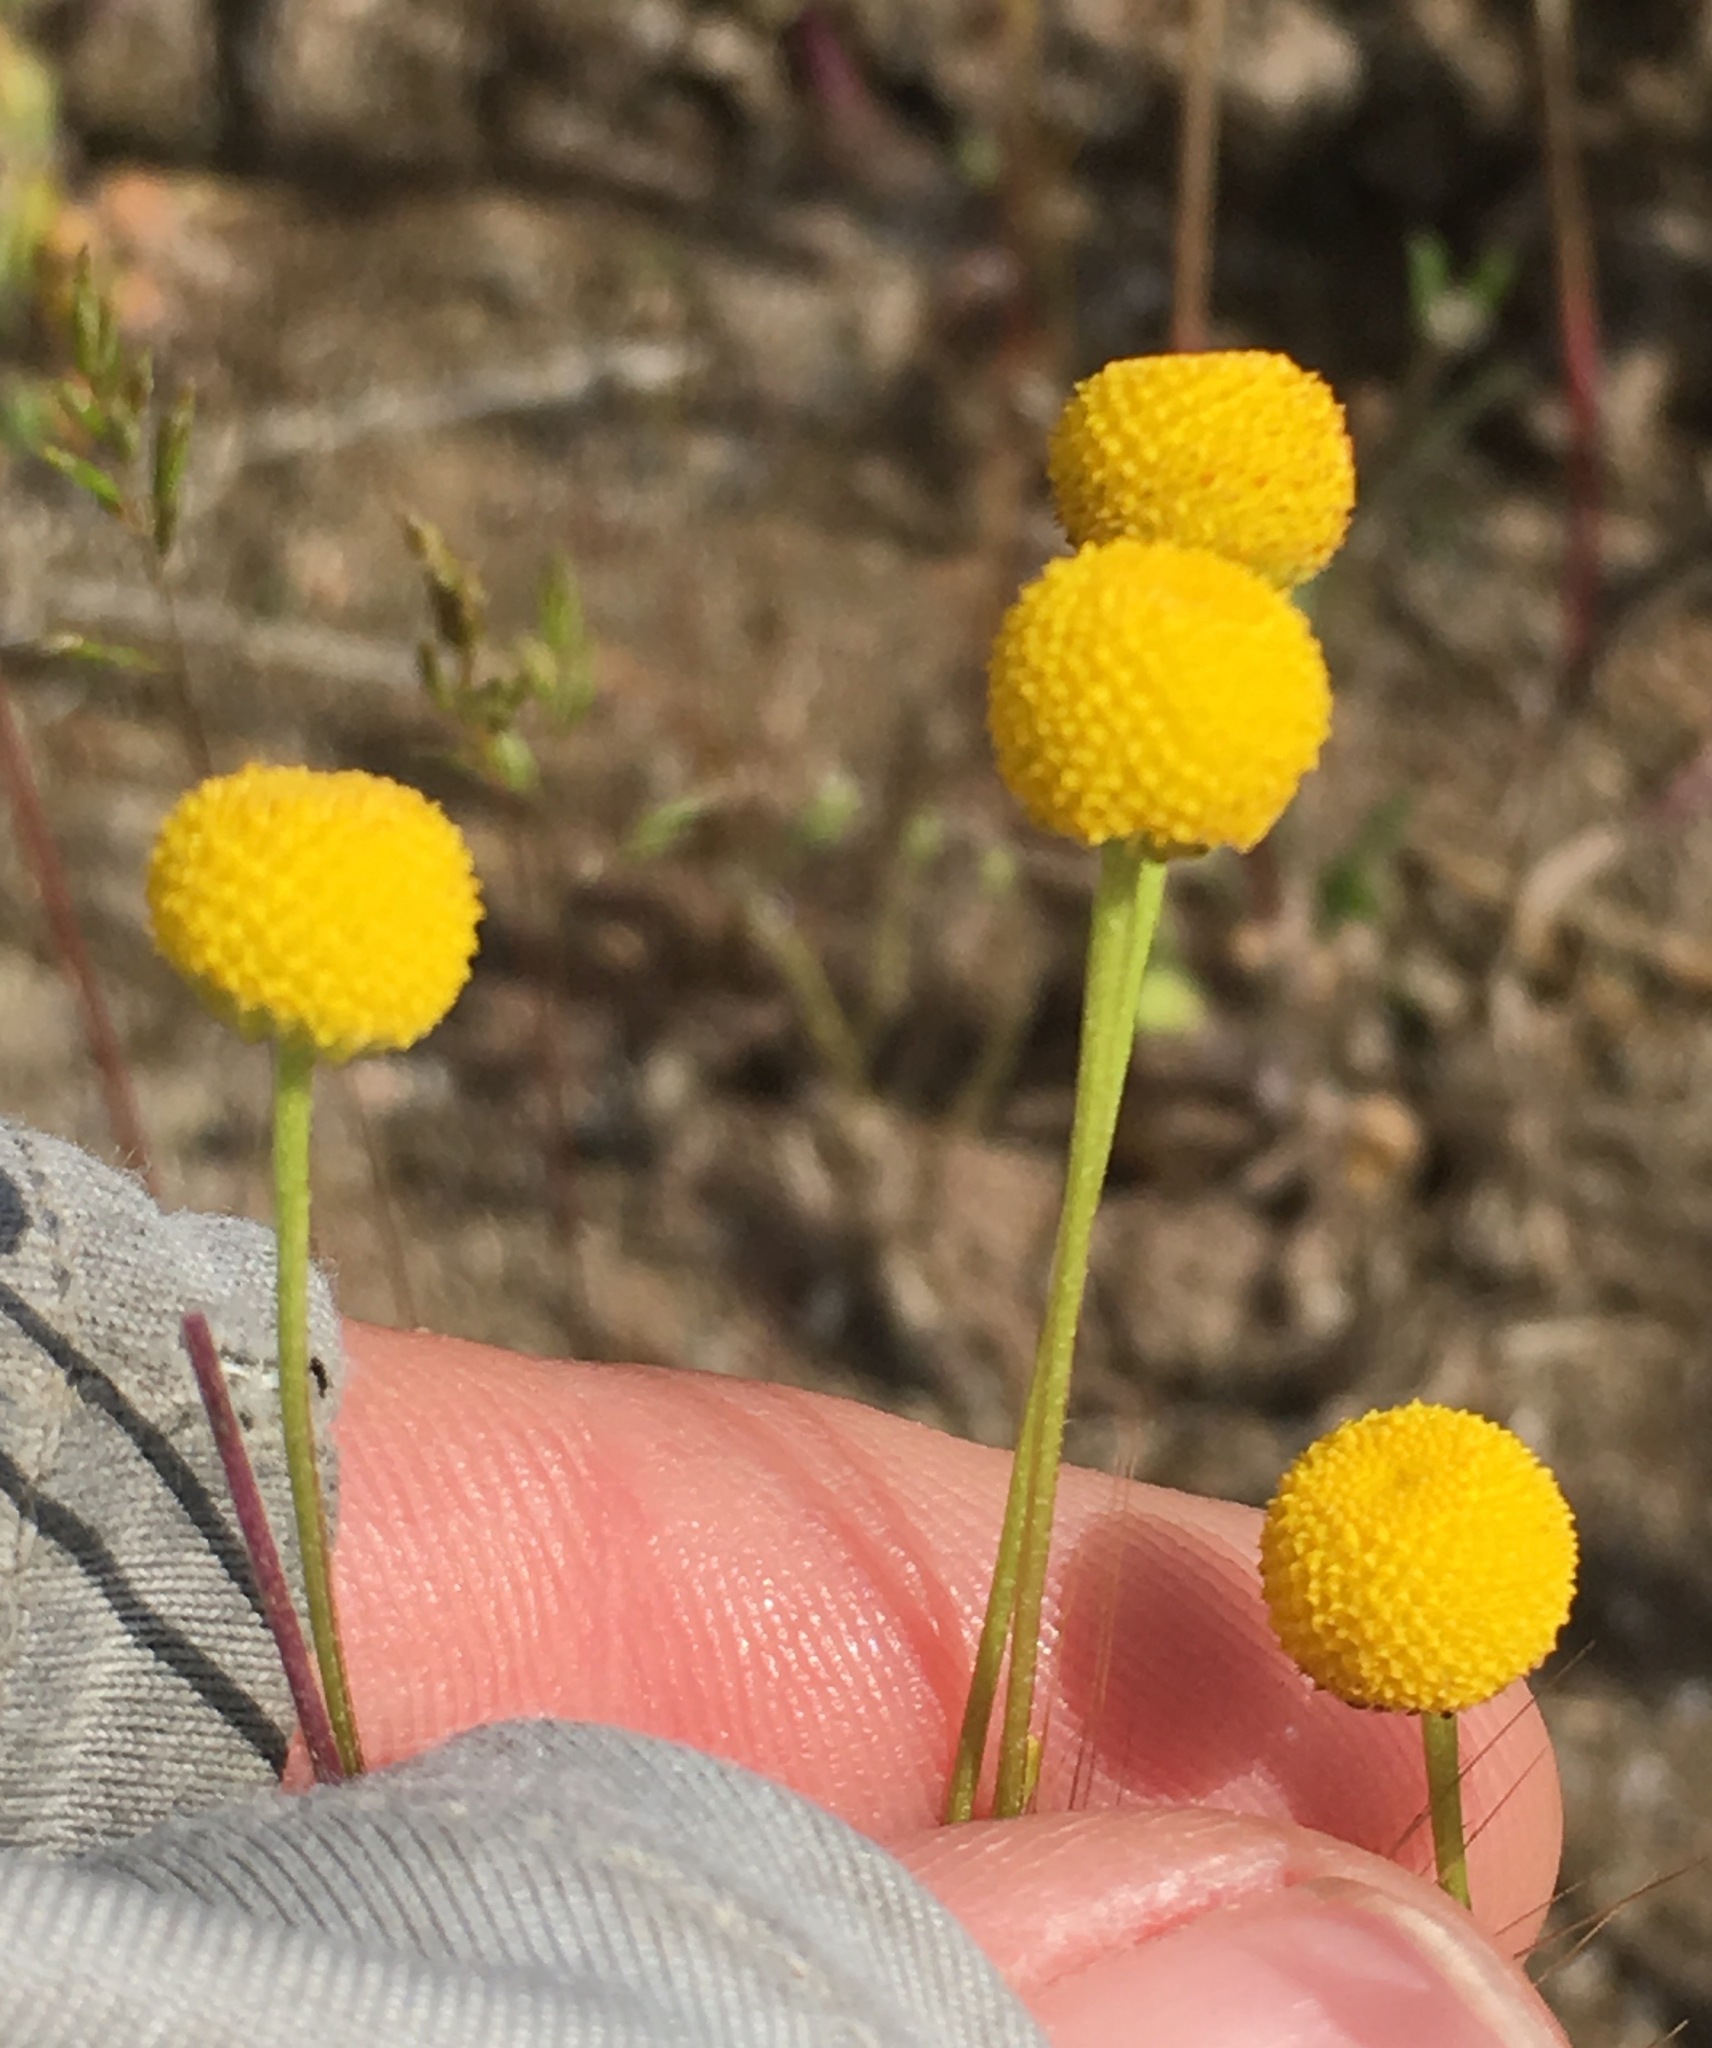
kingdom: Plantae
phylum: Tracheophyta
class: Magnoliopsida
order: Asterales
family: Asteraceae
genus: Oncosiphon
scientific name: Oncosiphon pilulifer
